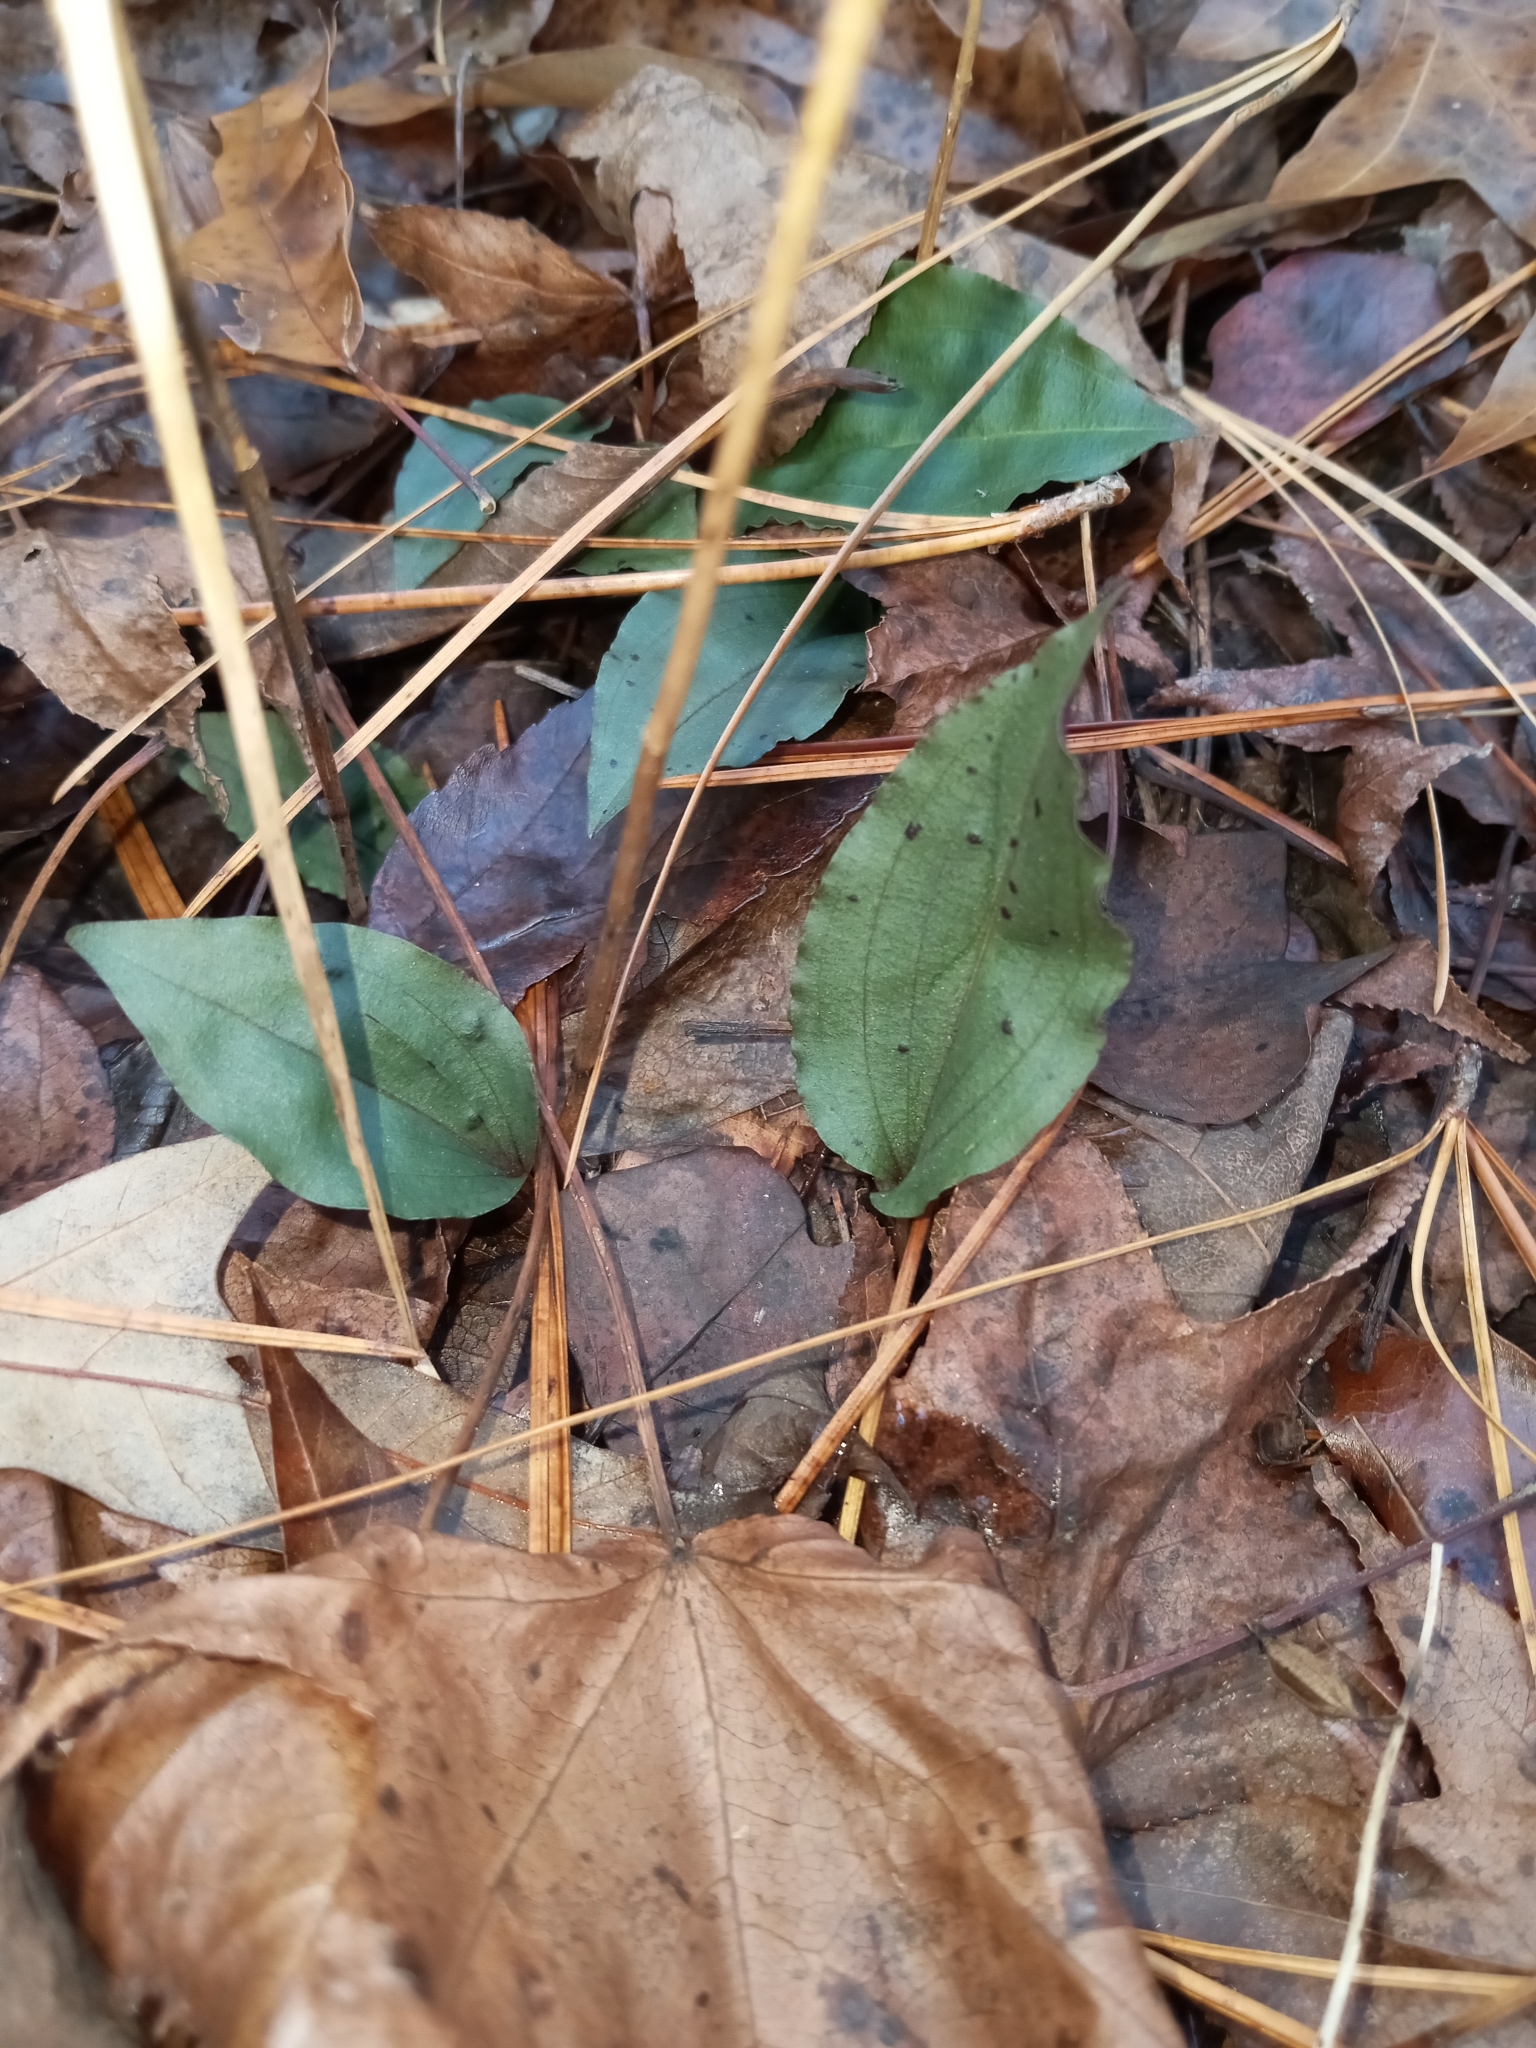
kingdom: Plantae
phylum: Tracheophyta
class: Liliopsida
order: Asparagales
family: Orchidaceae
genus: Tipularia
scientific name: Tipularia discolor
